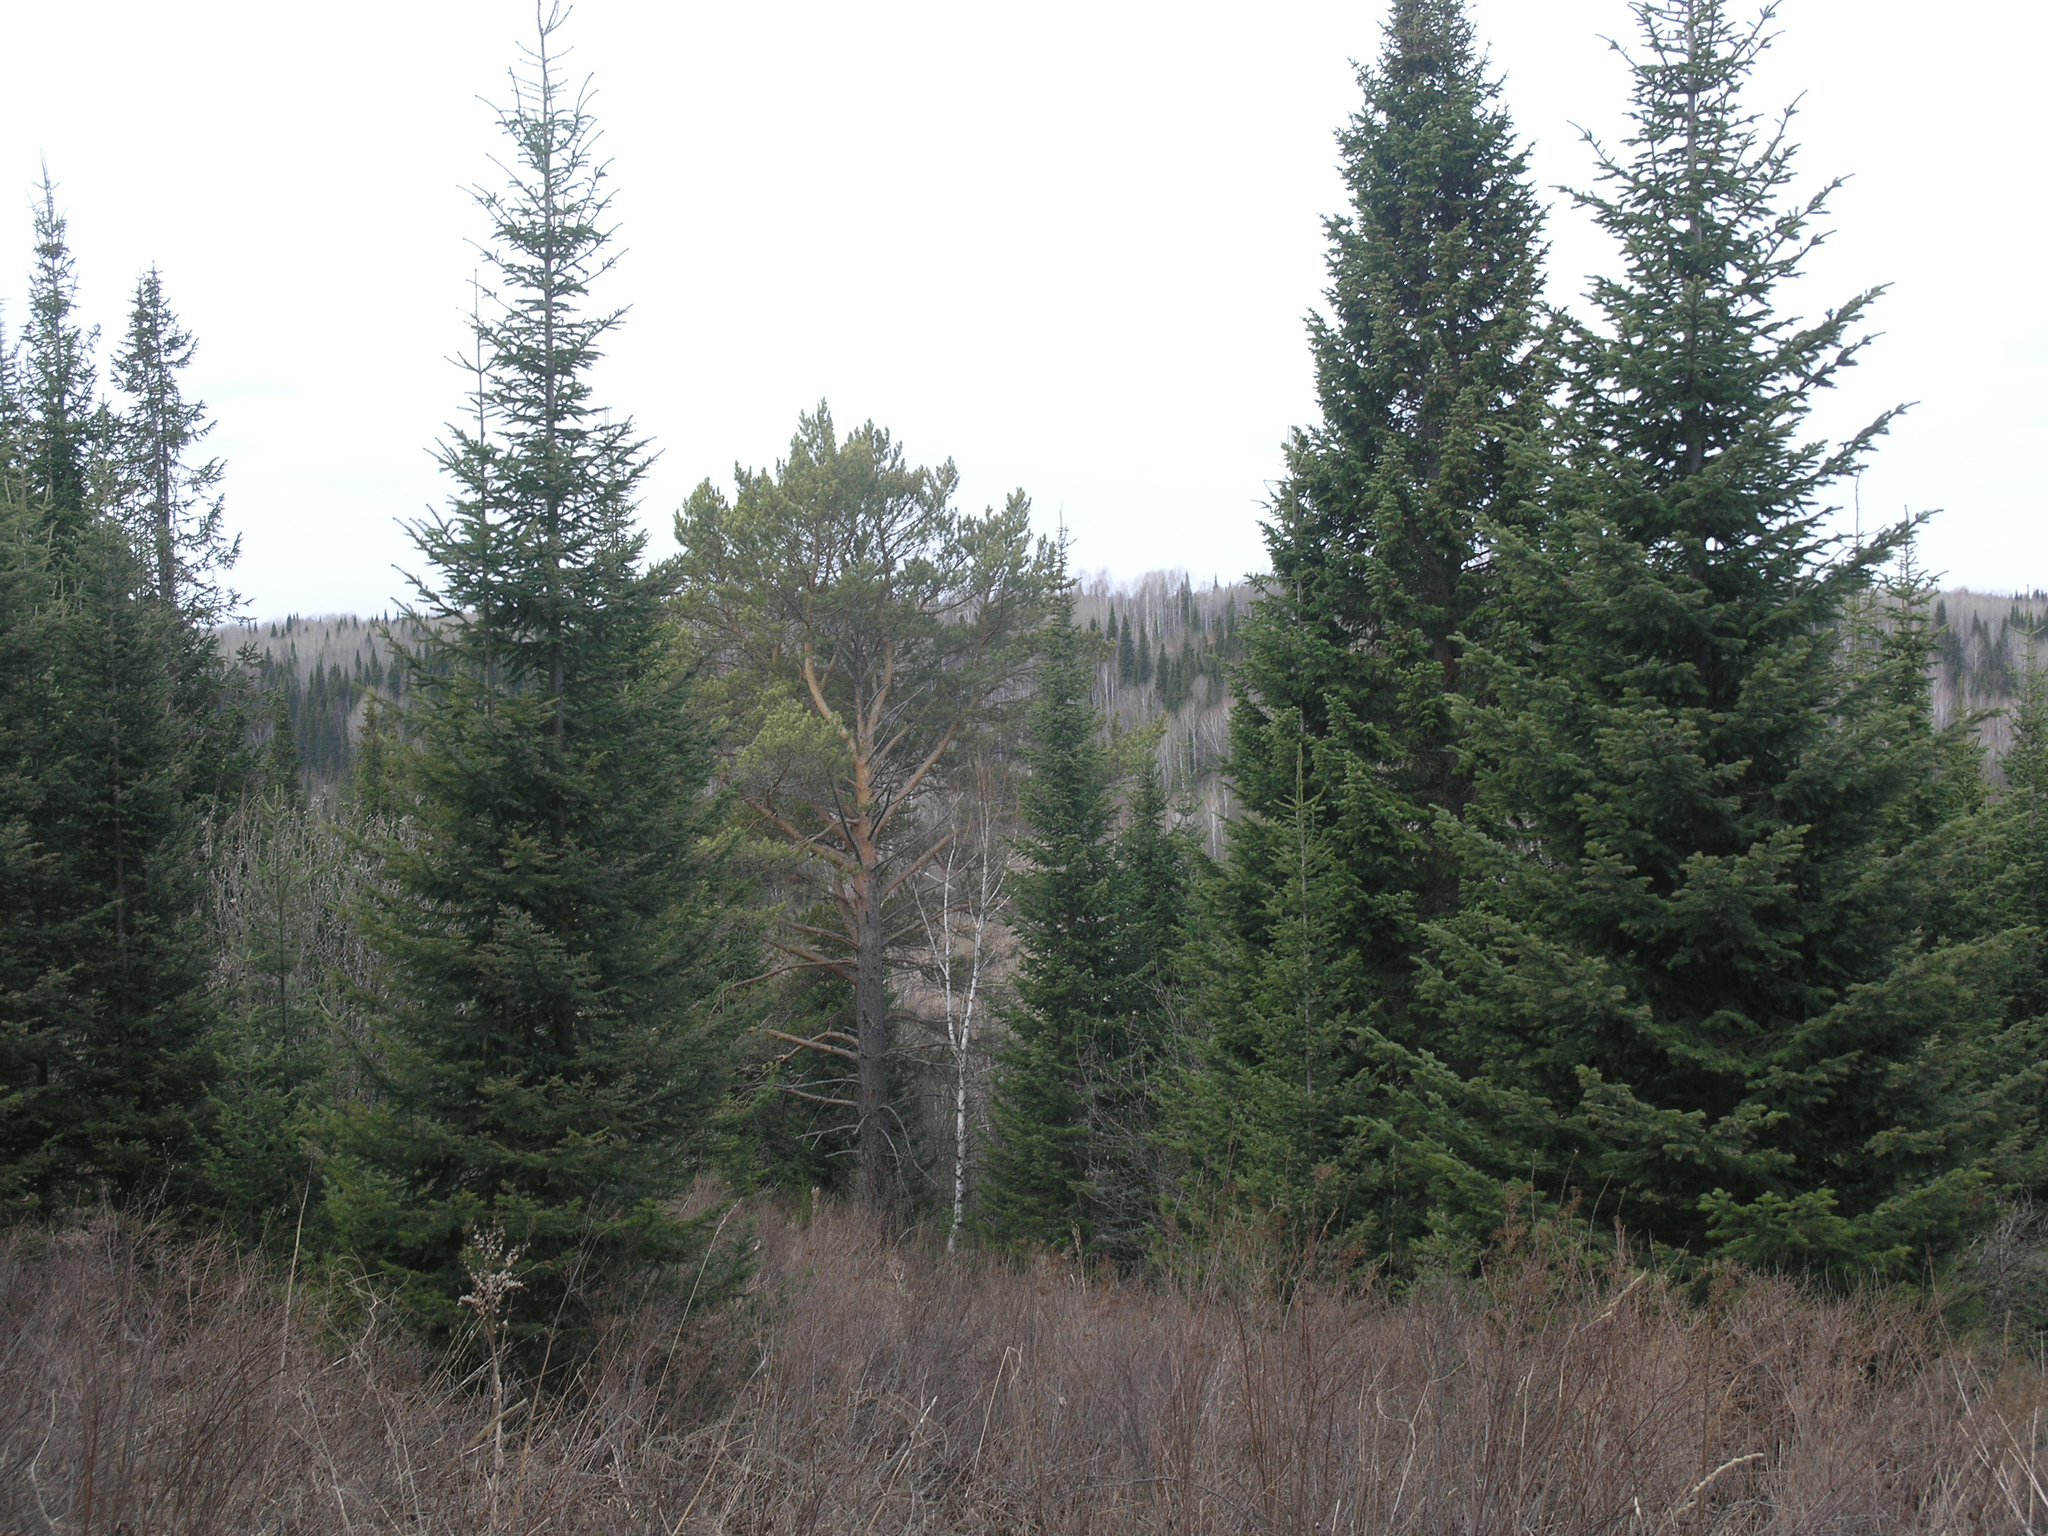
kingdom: Plantae
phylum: Tracheophyta
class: Pinopsida
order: Pinales
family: Pinaceae
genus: Pinus
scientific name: Pinus sylvestris
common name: Scots pine
